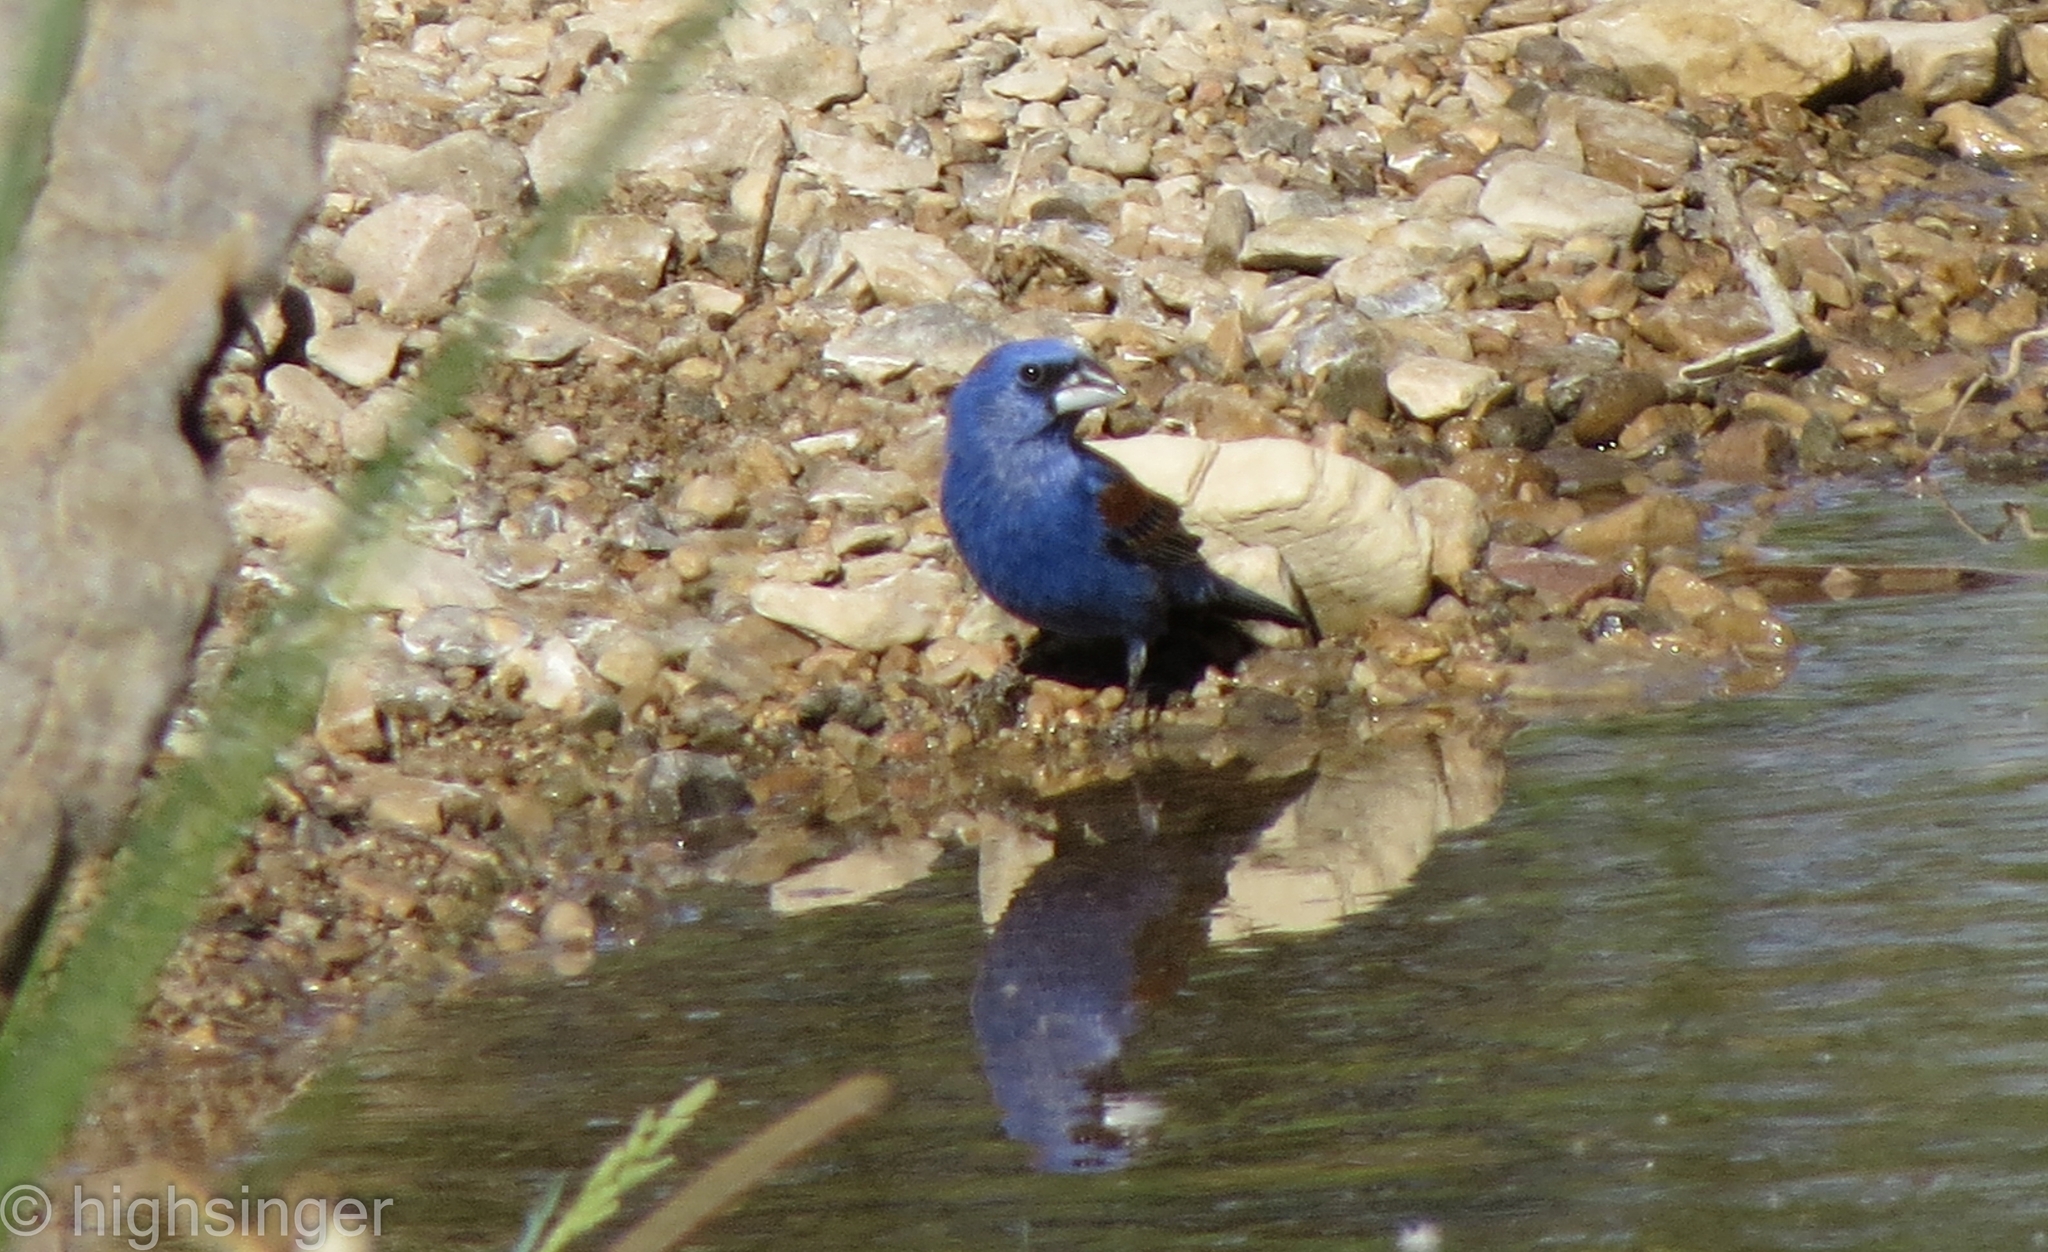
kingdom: Animalia
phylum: Chordata
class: Aves
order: Passeriformes
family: Cardinalidae
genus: Passerina
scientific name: Passerina caerulea
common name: Blue grosbeak
